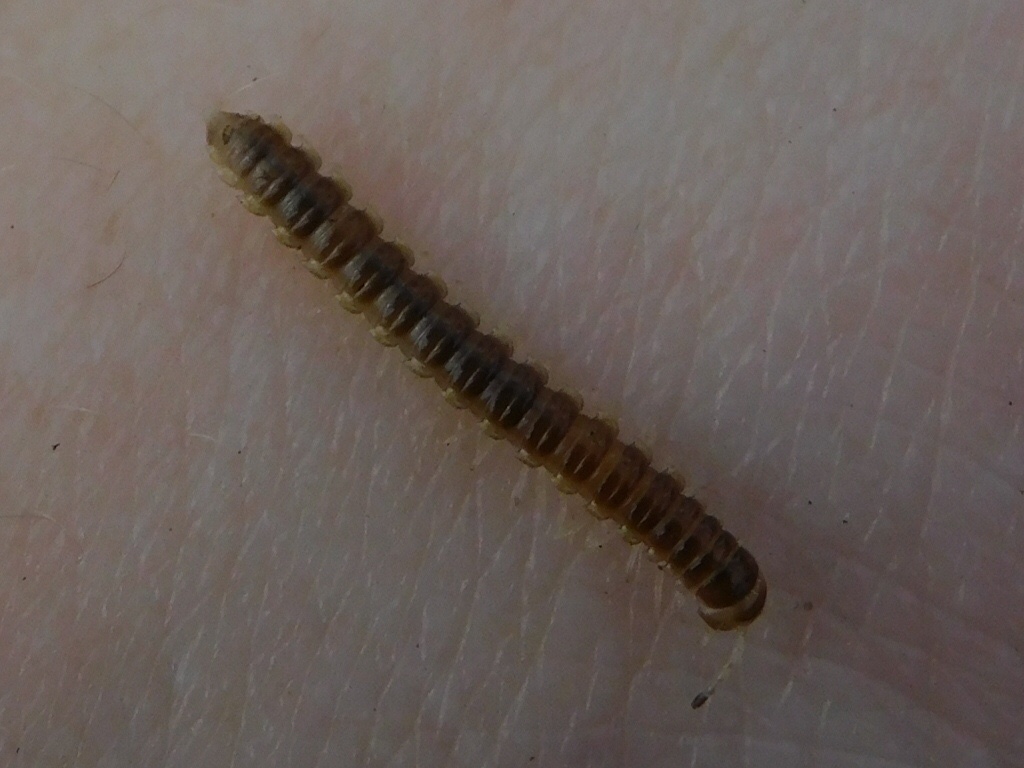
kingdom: Animalia
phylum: Arthropoda
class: Diplopoda
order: Polydesmida
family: Paradoxosomatidae
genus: Oxidus
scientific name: Oxidus gracilis
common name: Greenhouse millipede
